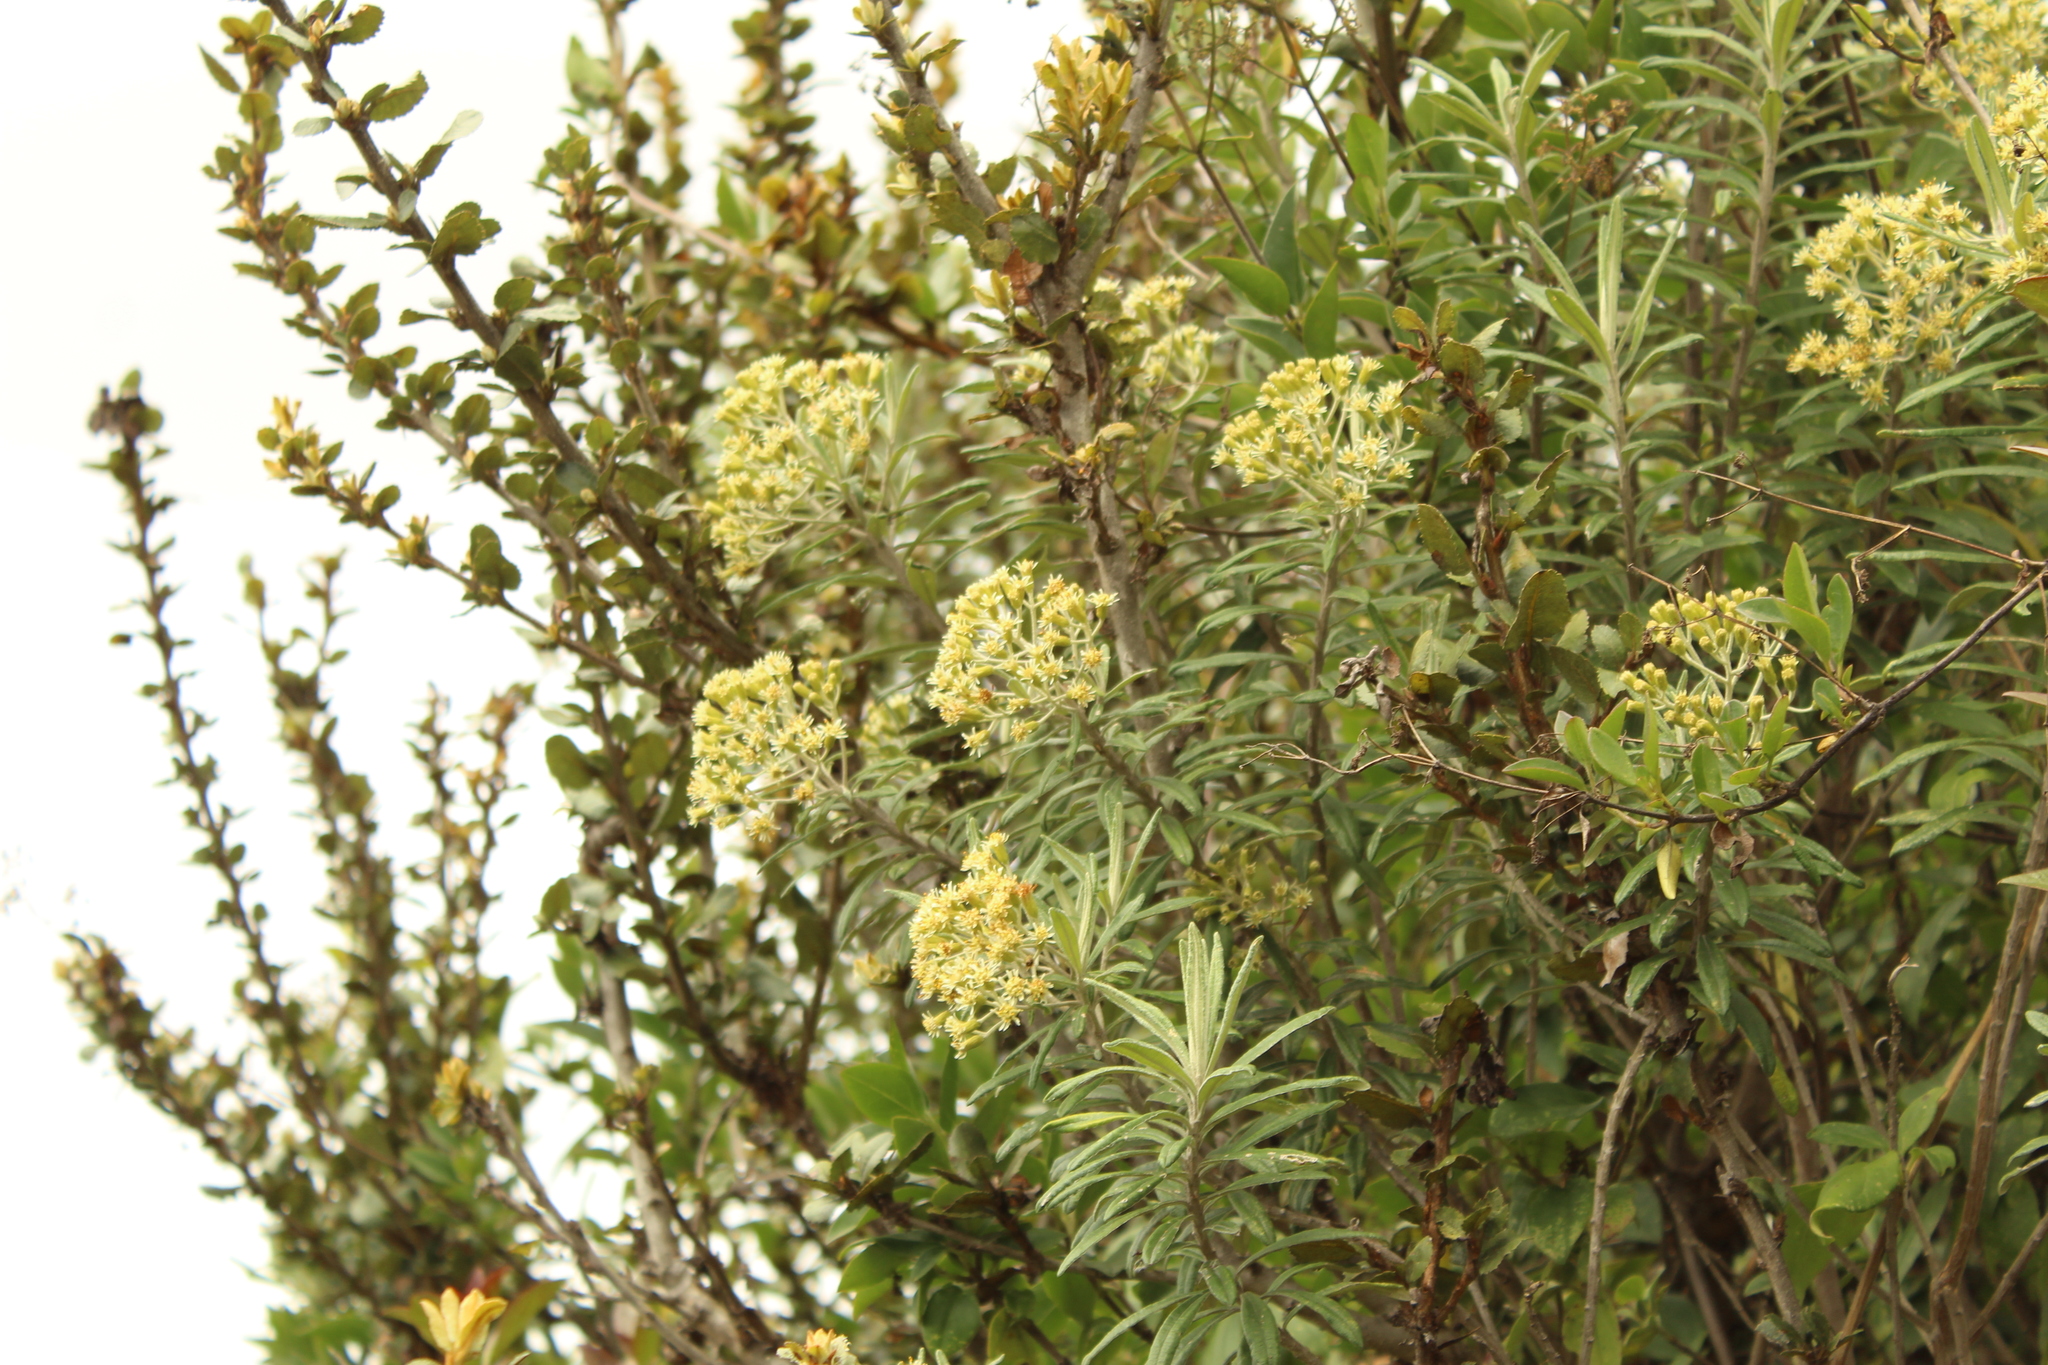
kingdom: Plantae
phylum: Tracheophyta
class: Magnoliopsida
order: Asterales
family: Asteraceae
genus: Linochilus
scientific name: Linochilus floribundus
